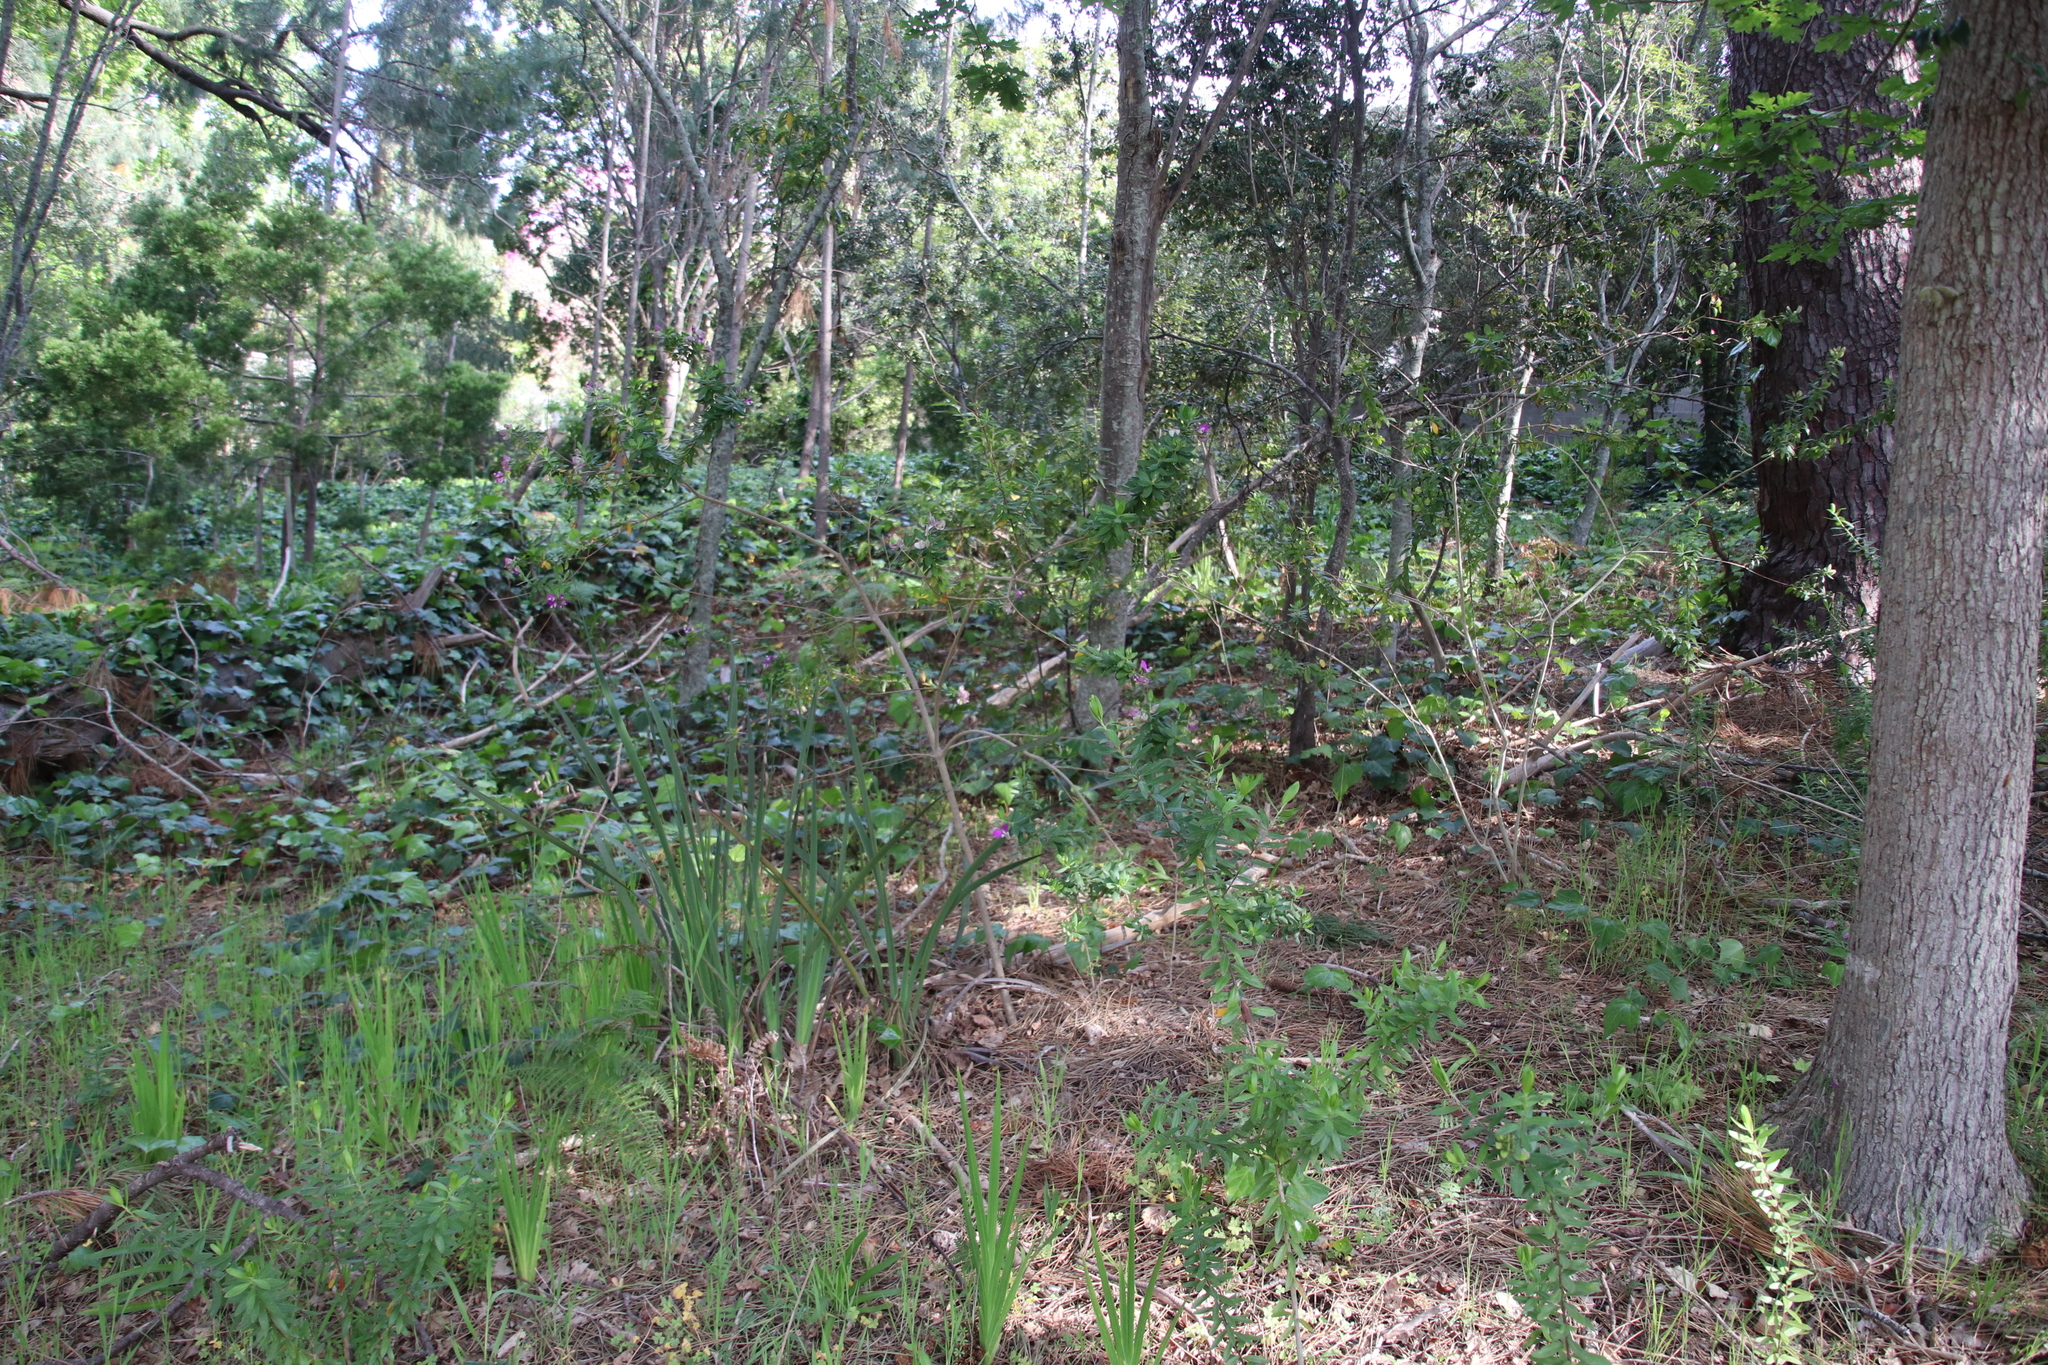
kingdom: Plantae
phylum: Tracheophyta
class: Magnoliopsida
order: Fabales
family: Polygalaceae
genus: Polygala
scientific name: Polygala myrtifolia
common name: Myrtle-leaf milkwort
